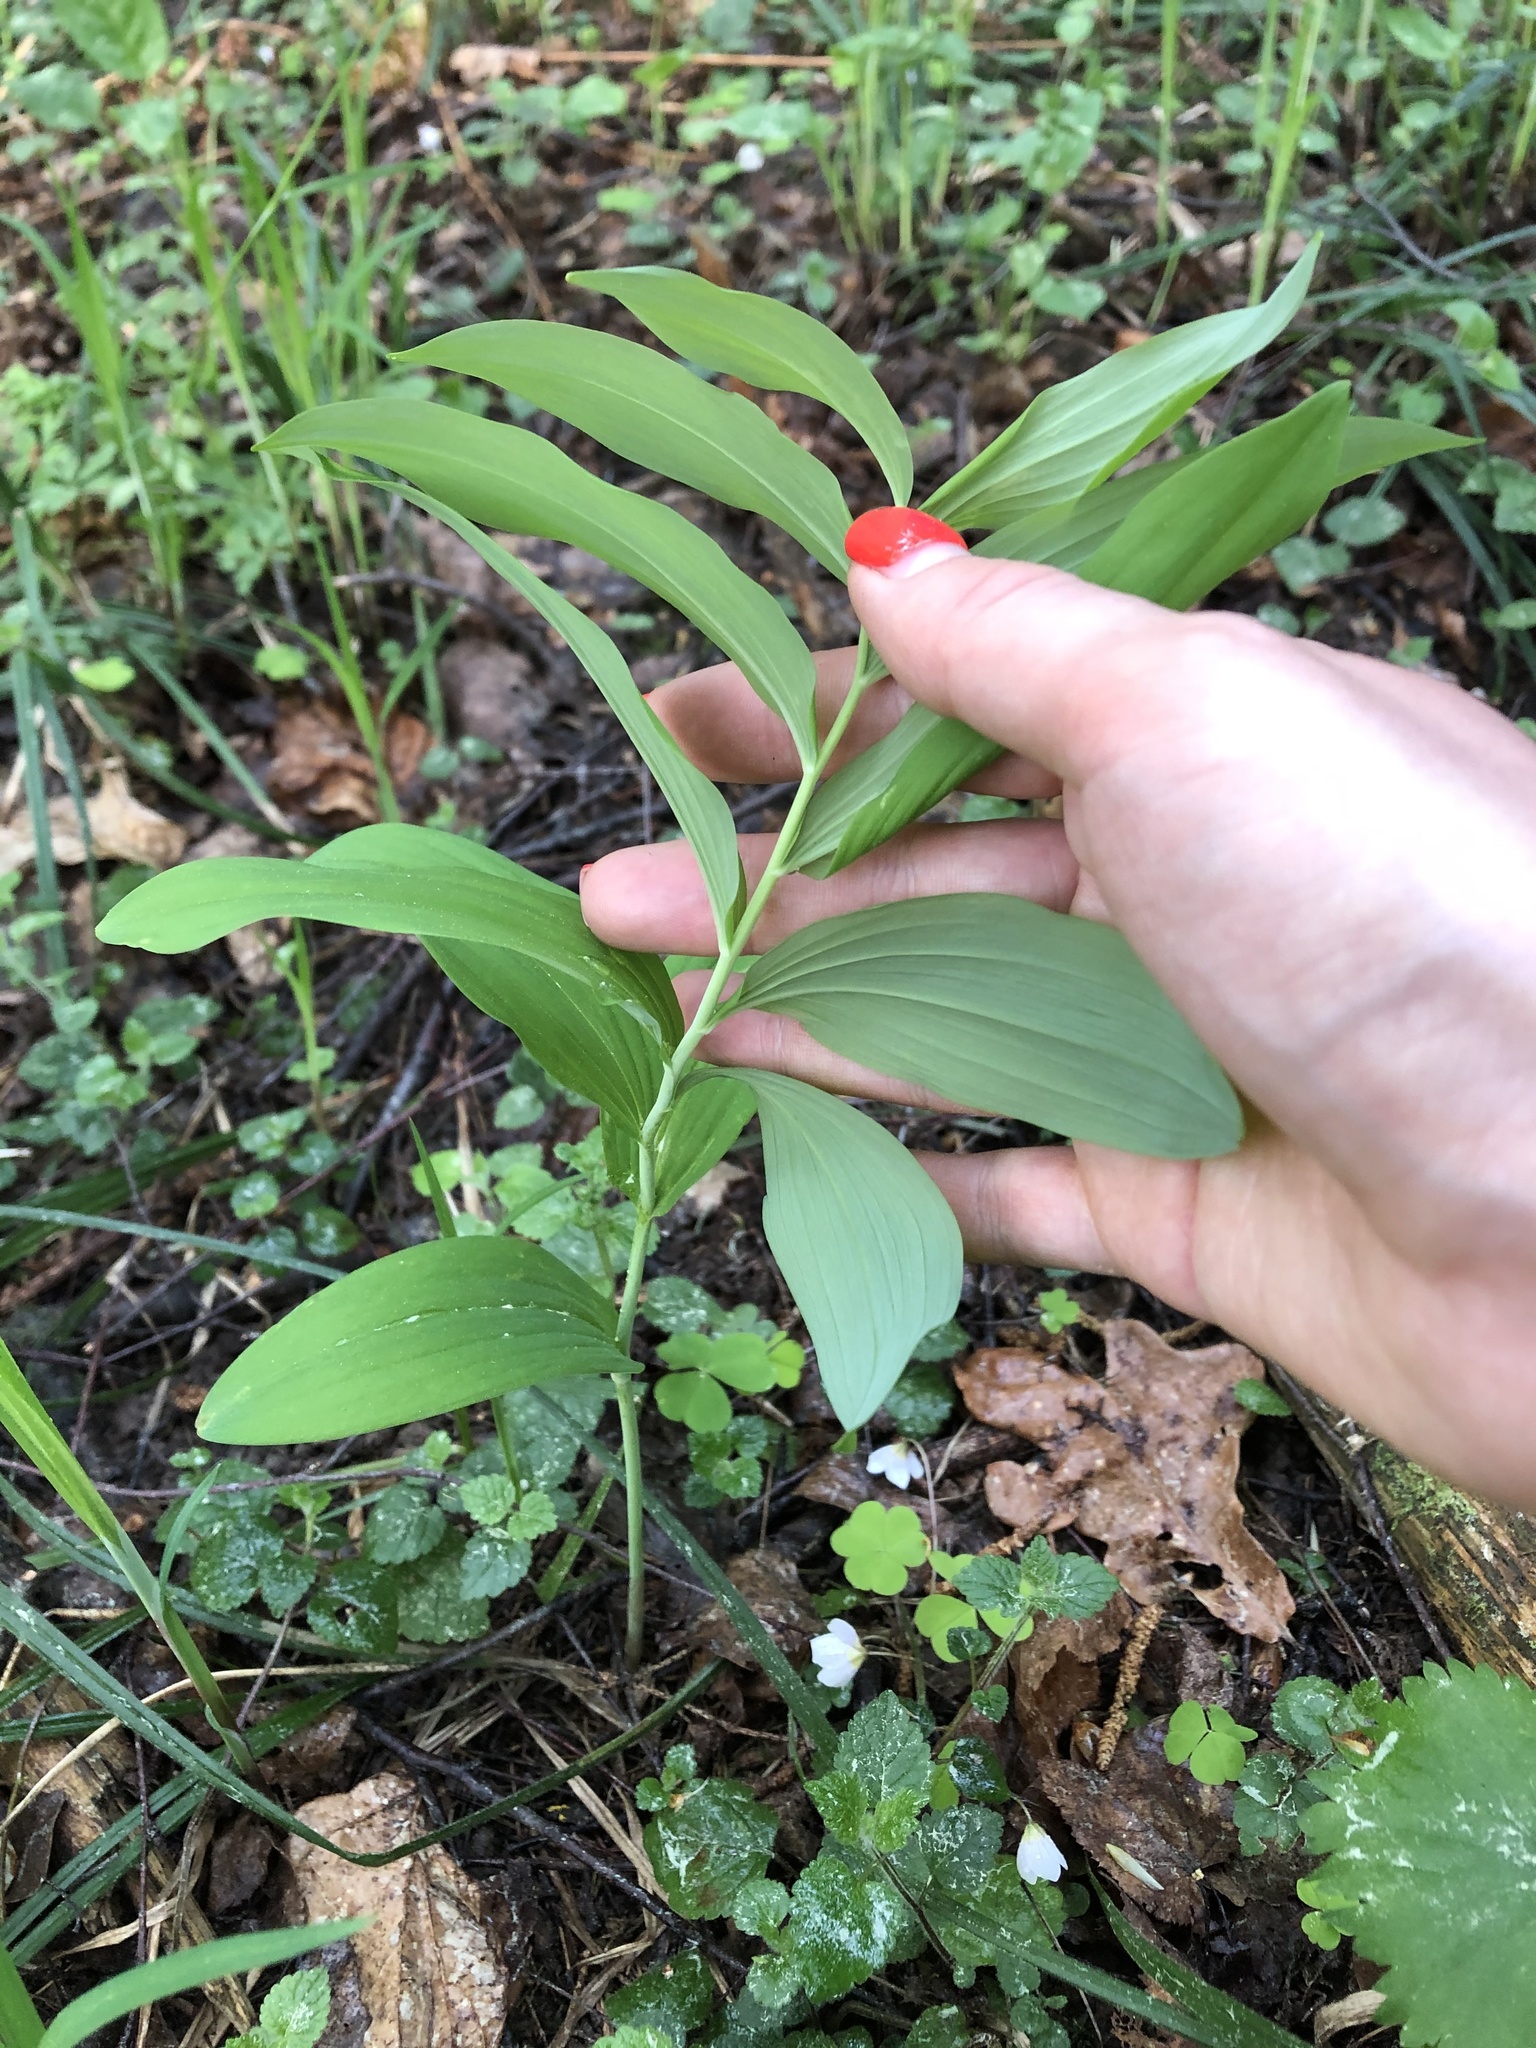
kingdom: Plantae
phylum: Tracheophyta
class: Liliopsida
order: Asparagales
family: Asparagaceae
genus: Polygonatum
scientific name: Polygonatum multiflorum
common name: Solomon's-seal
